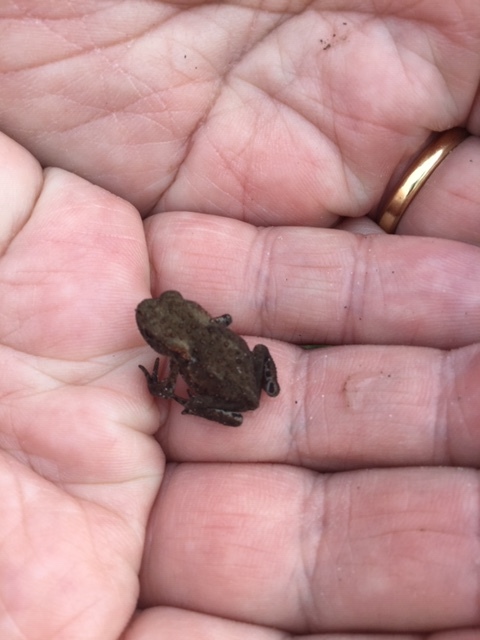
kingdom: Animalia
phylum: Chordata
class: Amphibia
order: Anura
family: Bufonidae
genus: Bufo
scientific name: Bufo bufo
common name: Common toad
